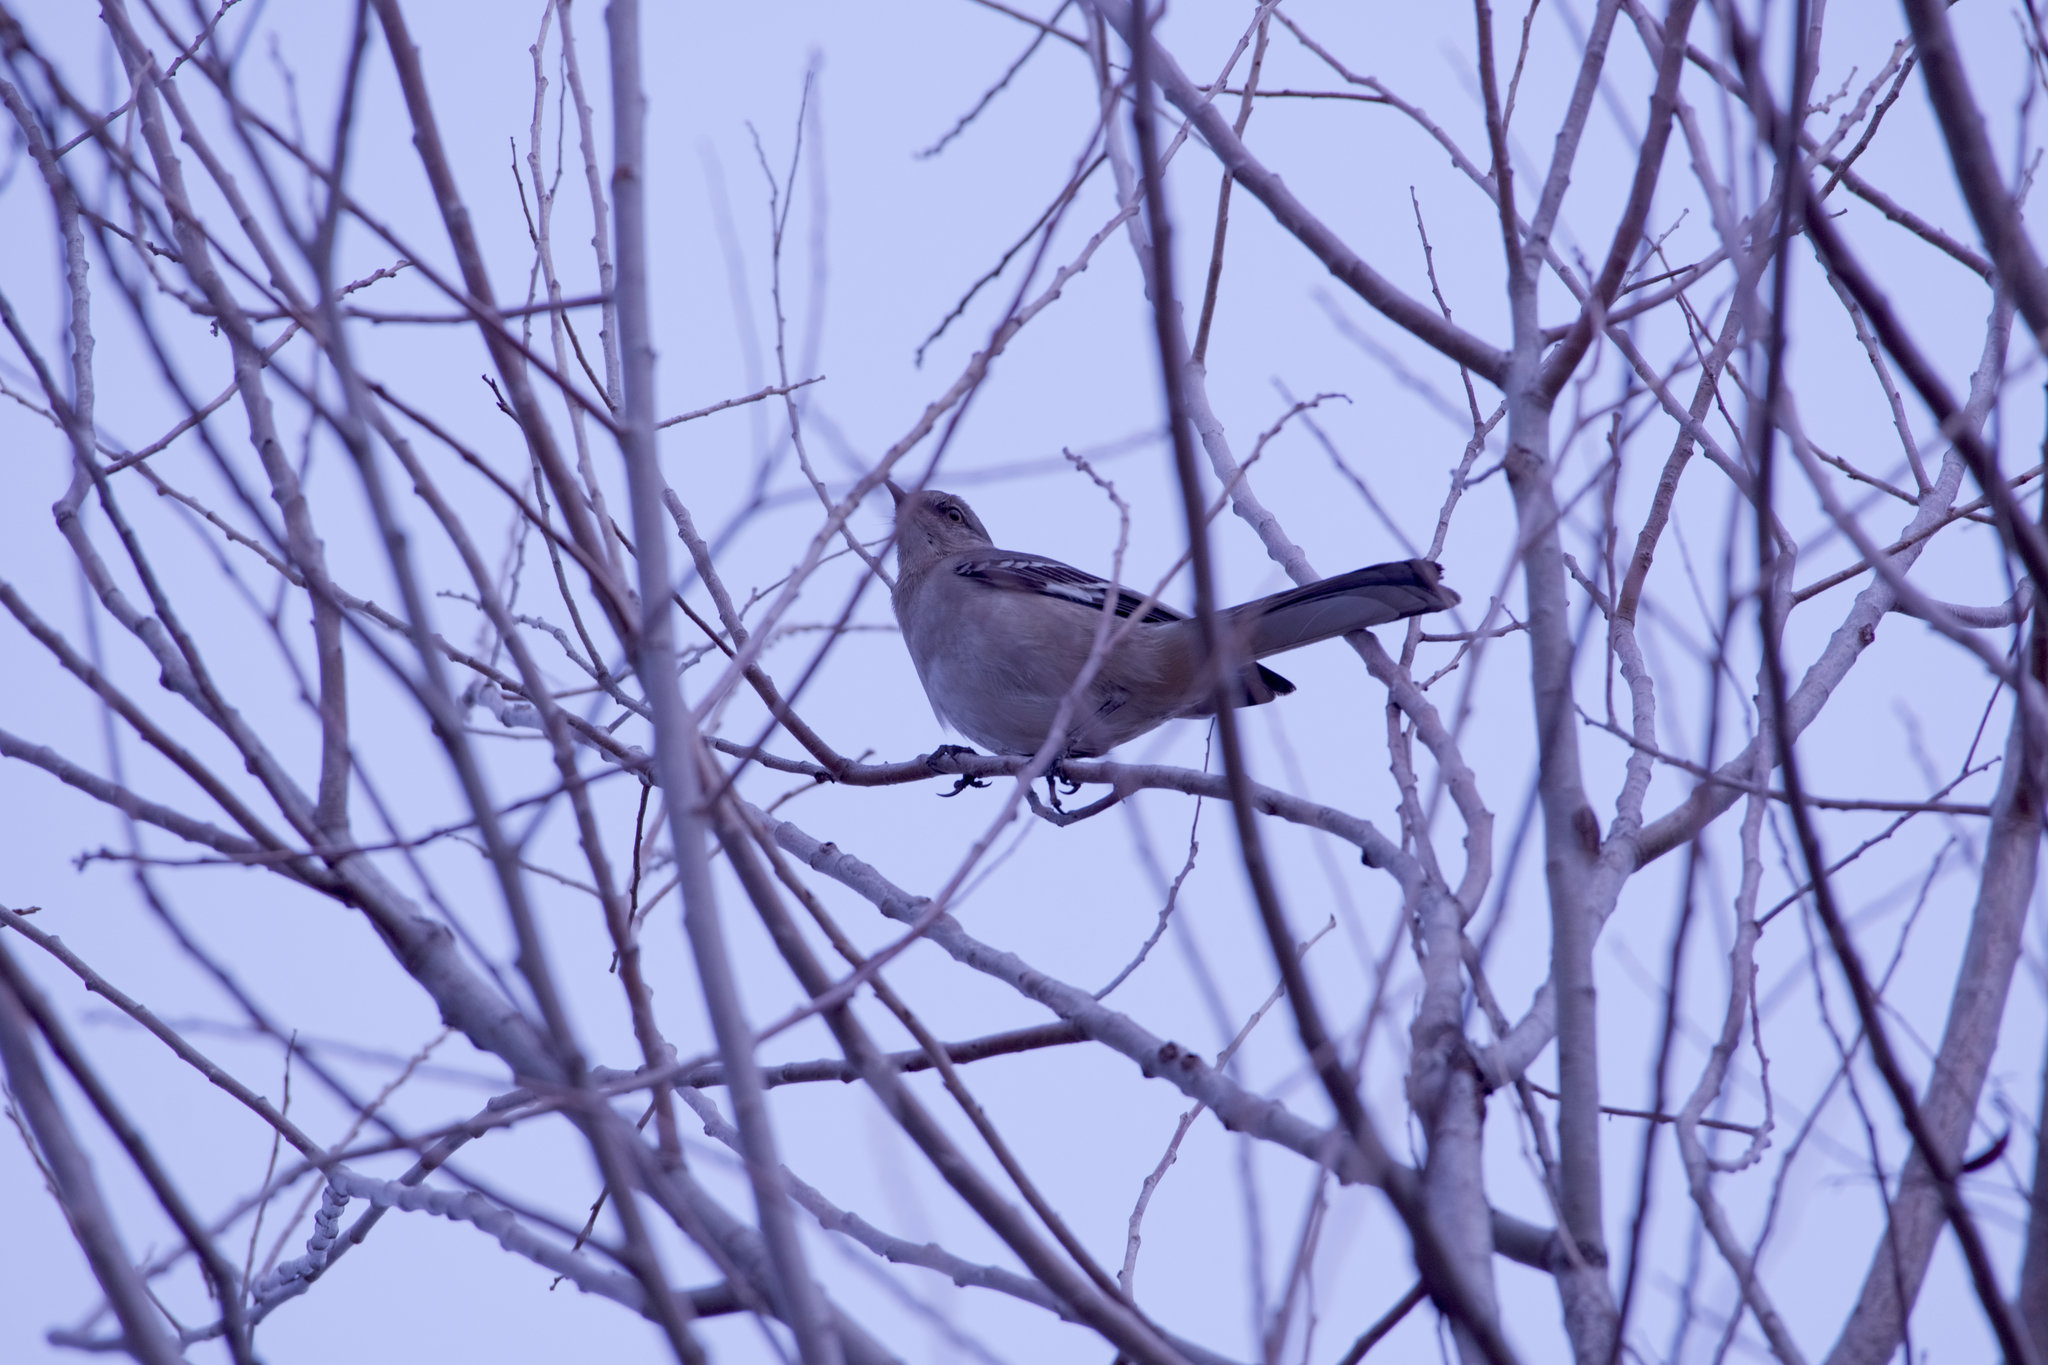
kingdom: Animalia
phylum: Chordata
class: Aves
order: Passeriformes
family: Mimidae
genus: Mimus
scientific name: Mimus polyglottos
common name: Northern mockingbird
